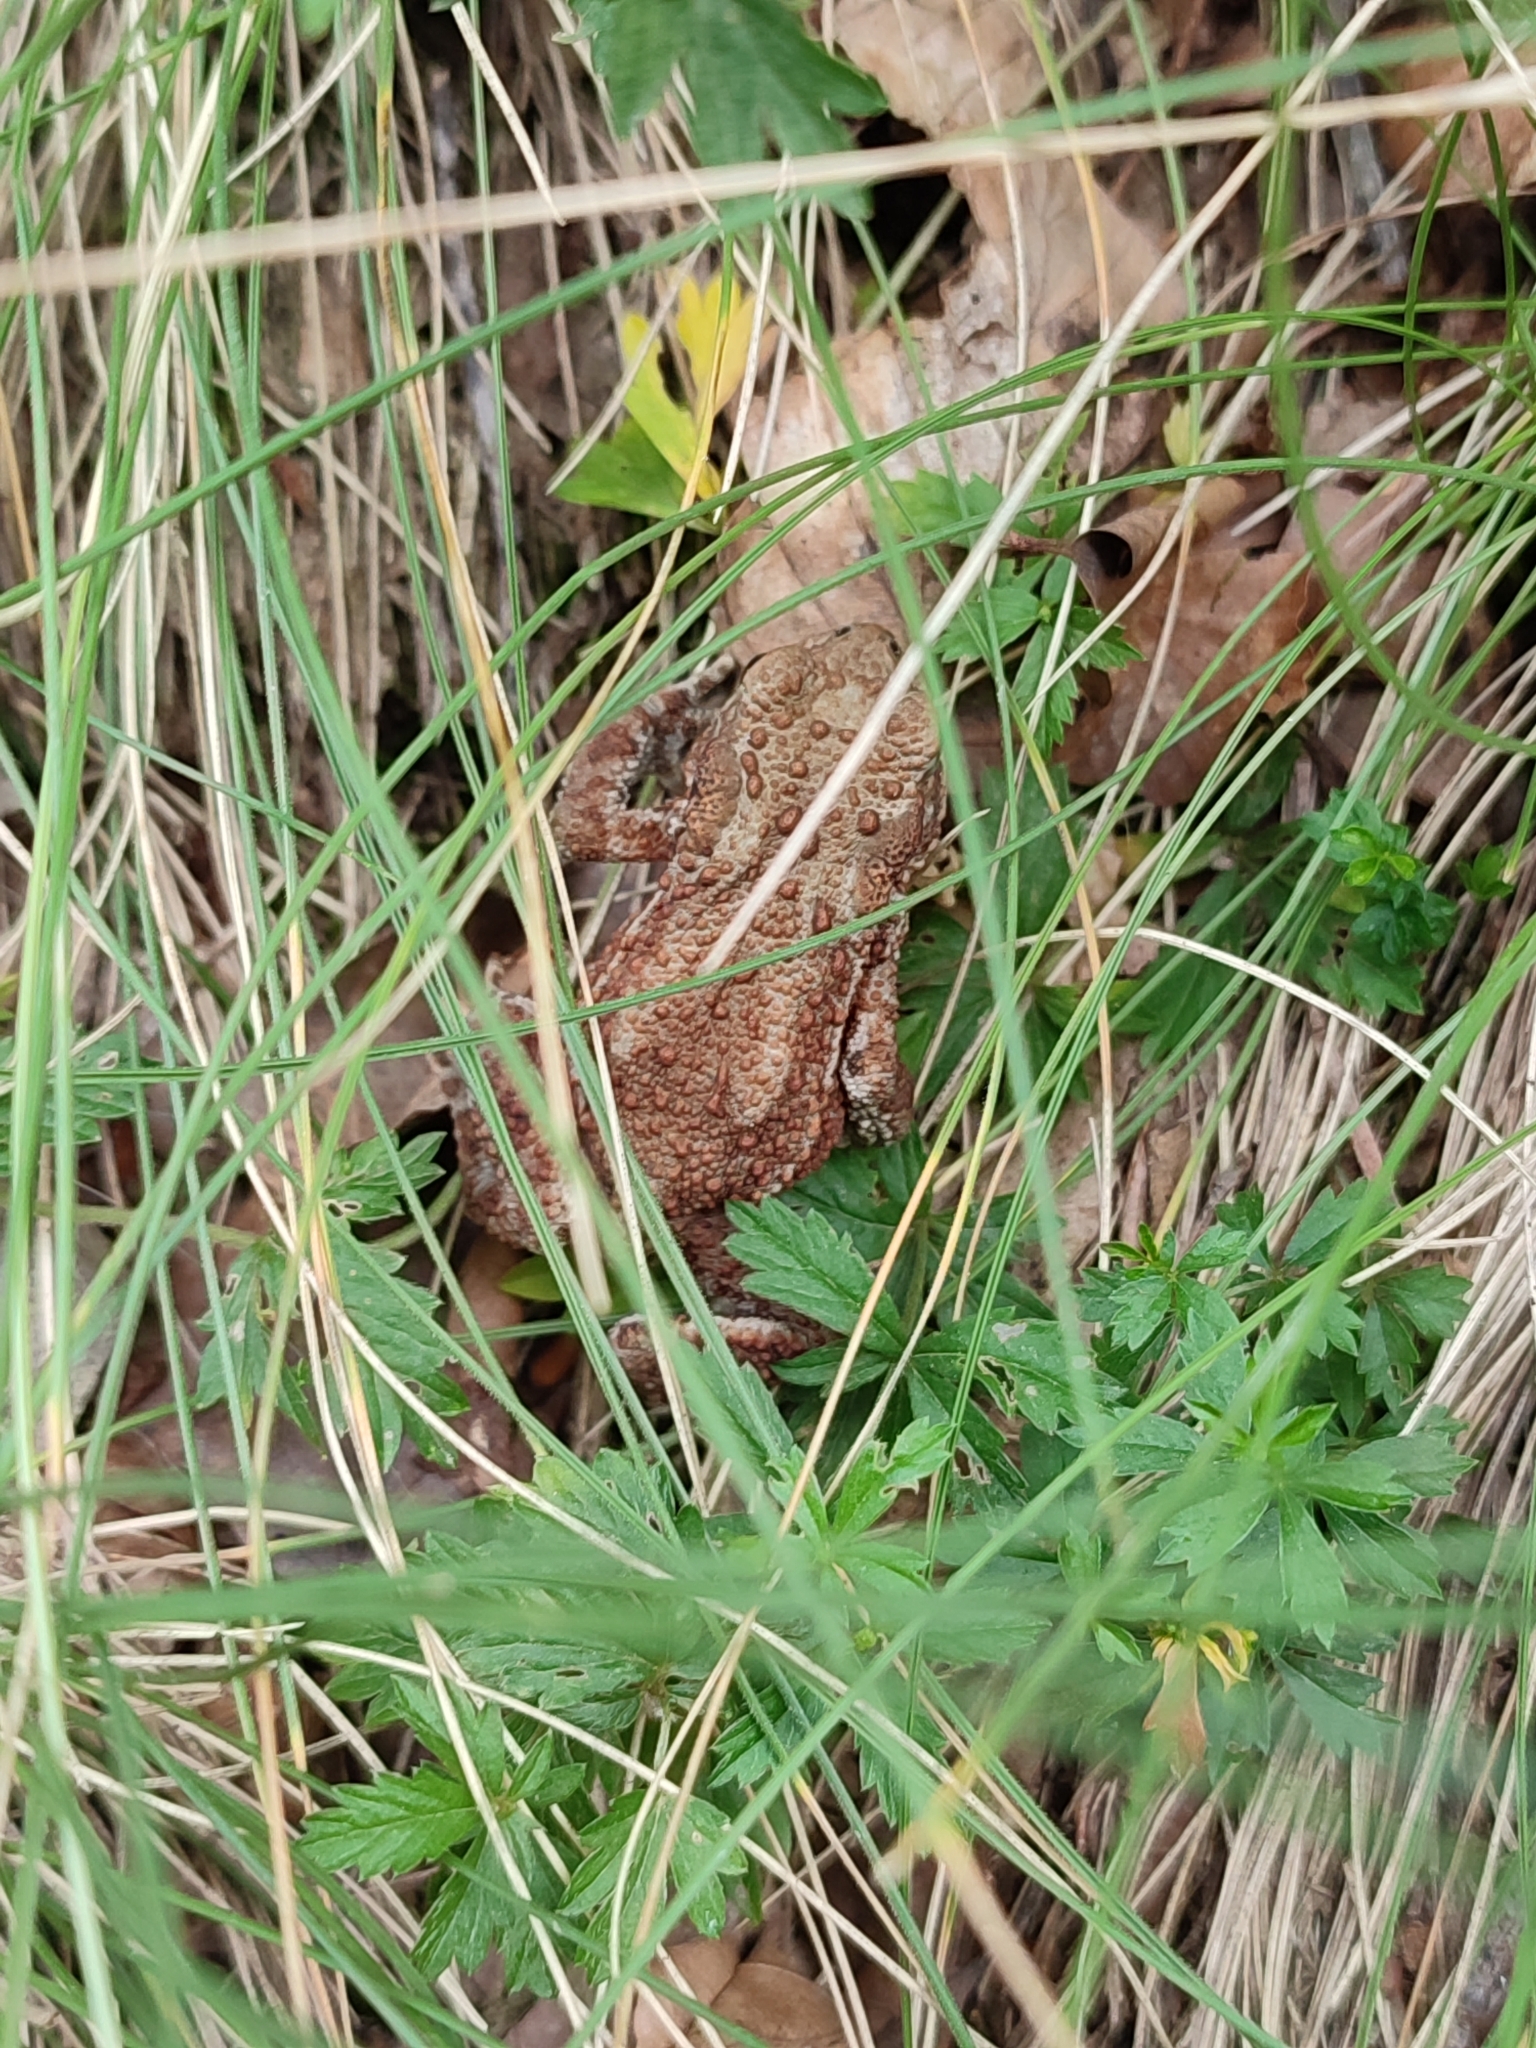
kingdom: Animalia
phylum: Chordata
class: Amphibia
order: Anura
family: Bufonidae
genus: Bufo
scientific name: Bufo bufo
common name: Common toad
